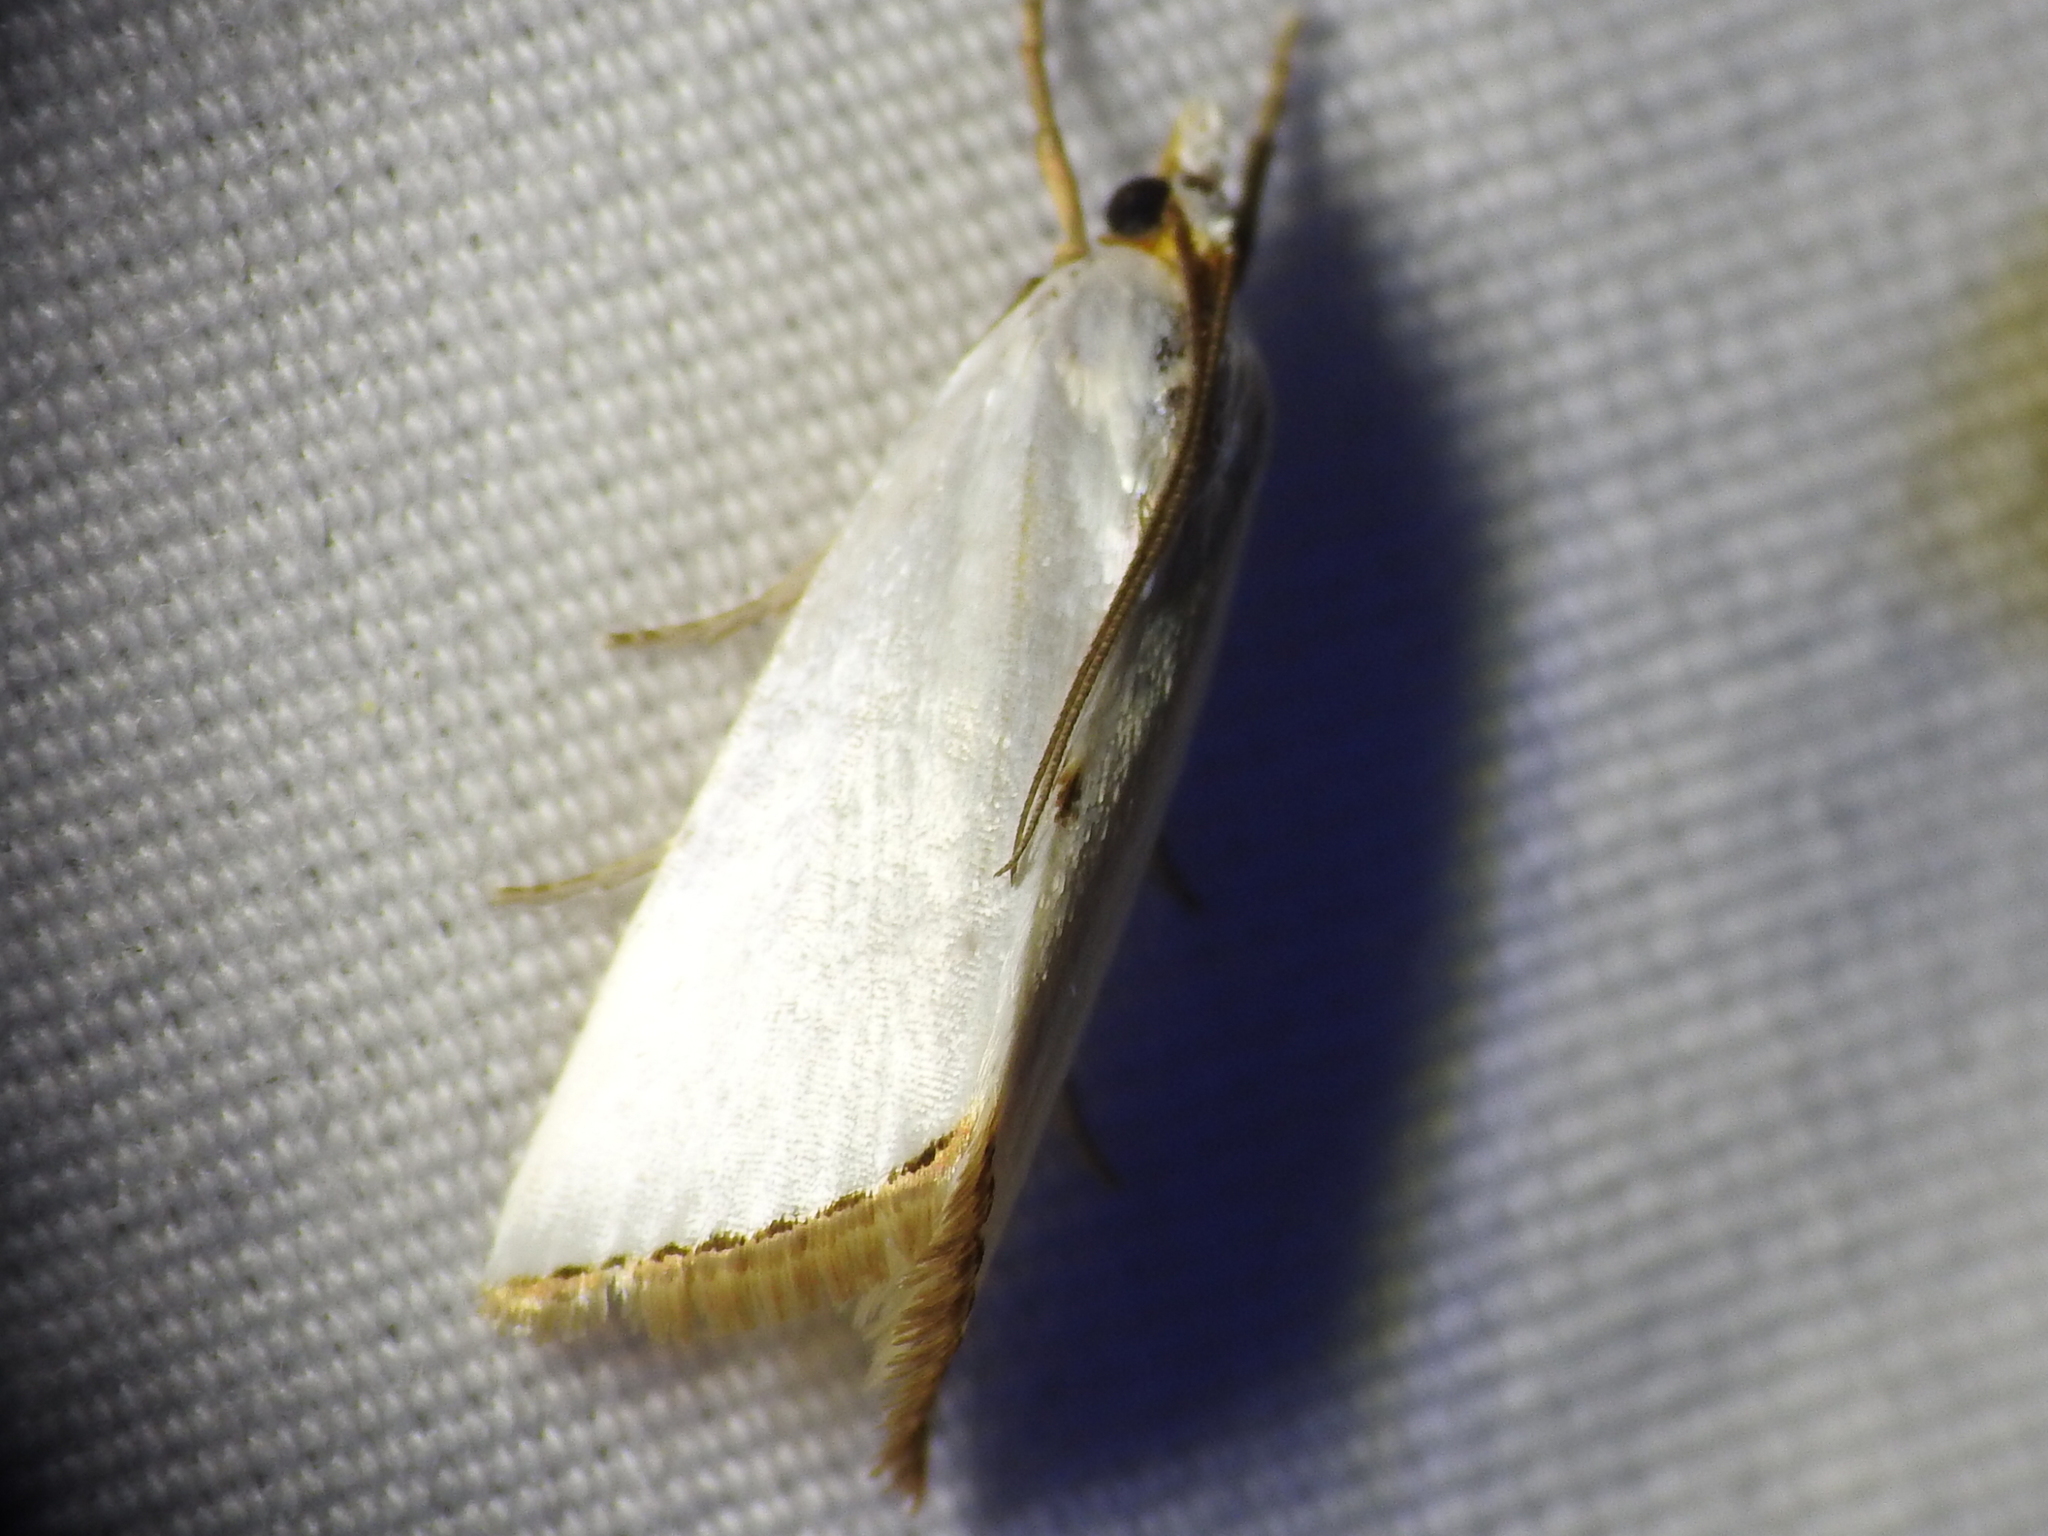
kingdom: Animalia
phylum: Arthropoda
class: Insecta
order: Lepidoptera
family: Crambidae
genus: Argyria
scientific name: Argyria nivalis
